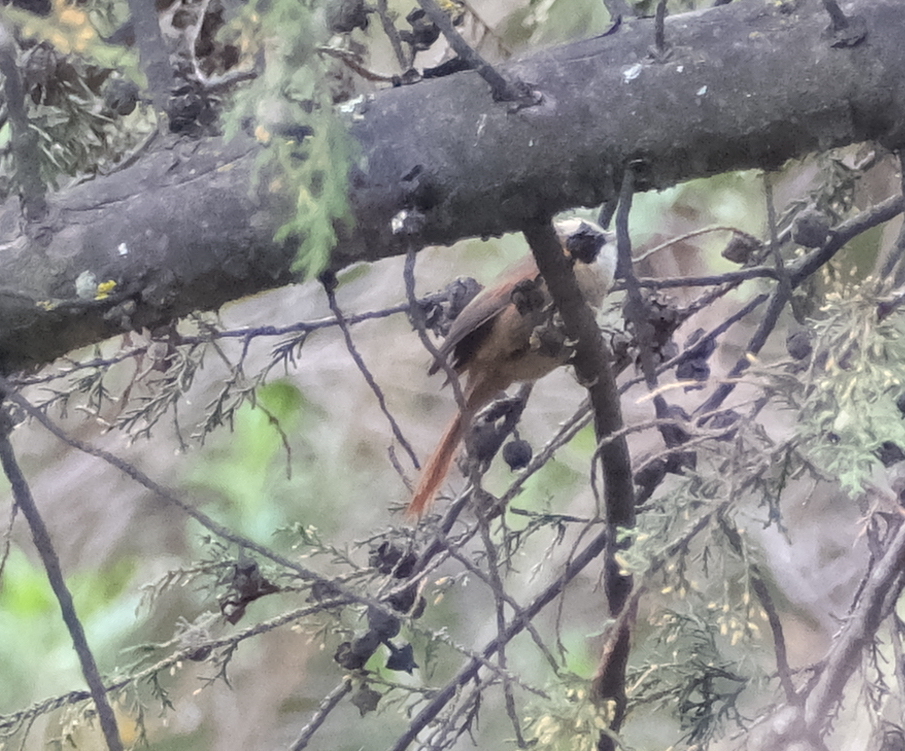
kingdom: Animalia
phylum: Chordata
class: Aves
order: Passeriformes
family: Furnariidae
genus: Cranioleuca
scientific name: Cranioleuca albicapilla
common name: Creamy-crested spinetail
